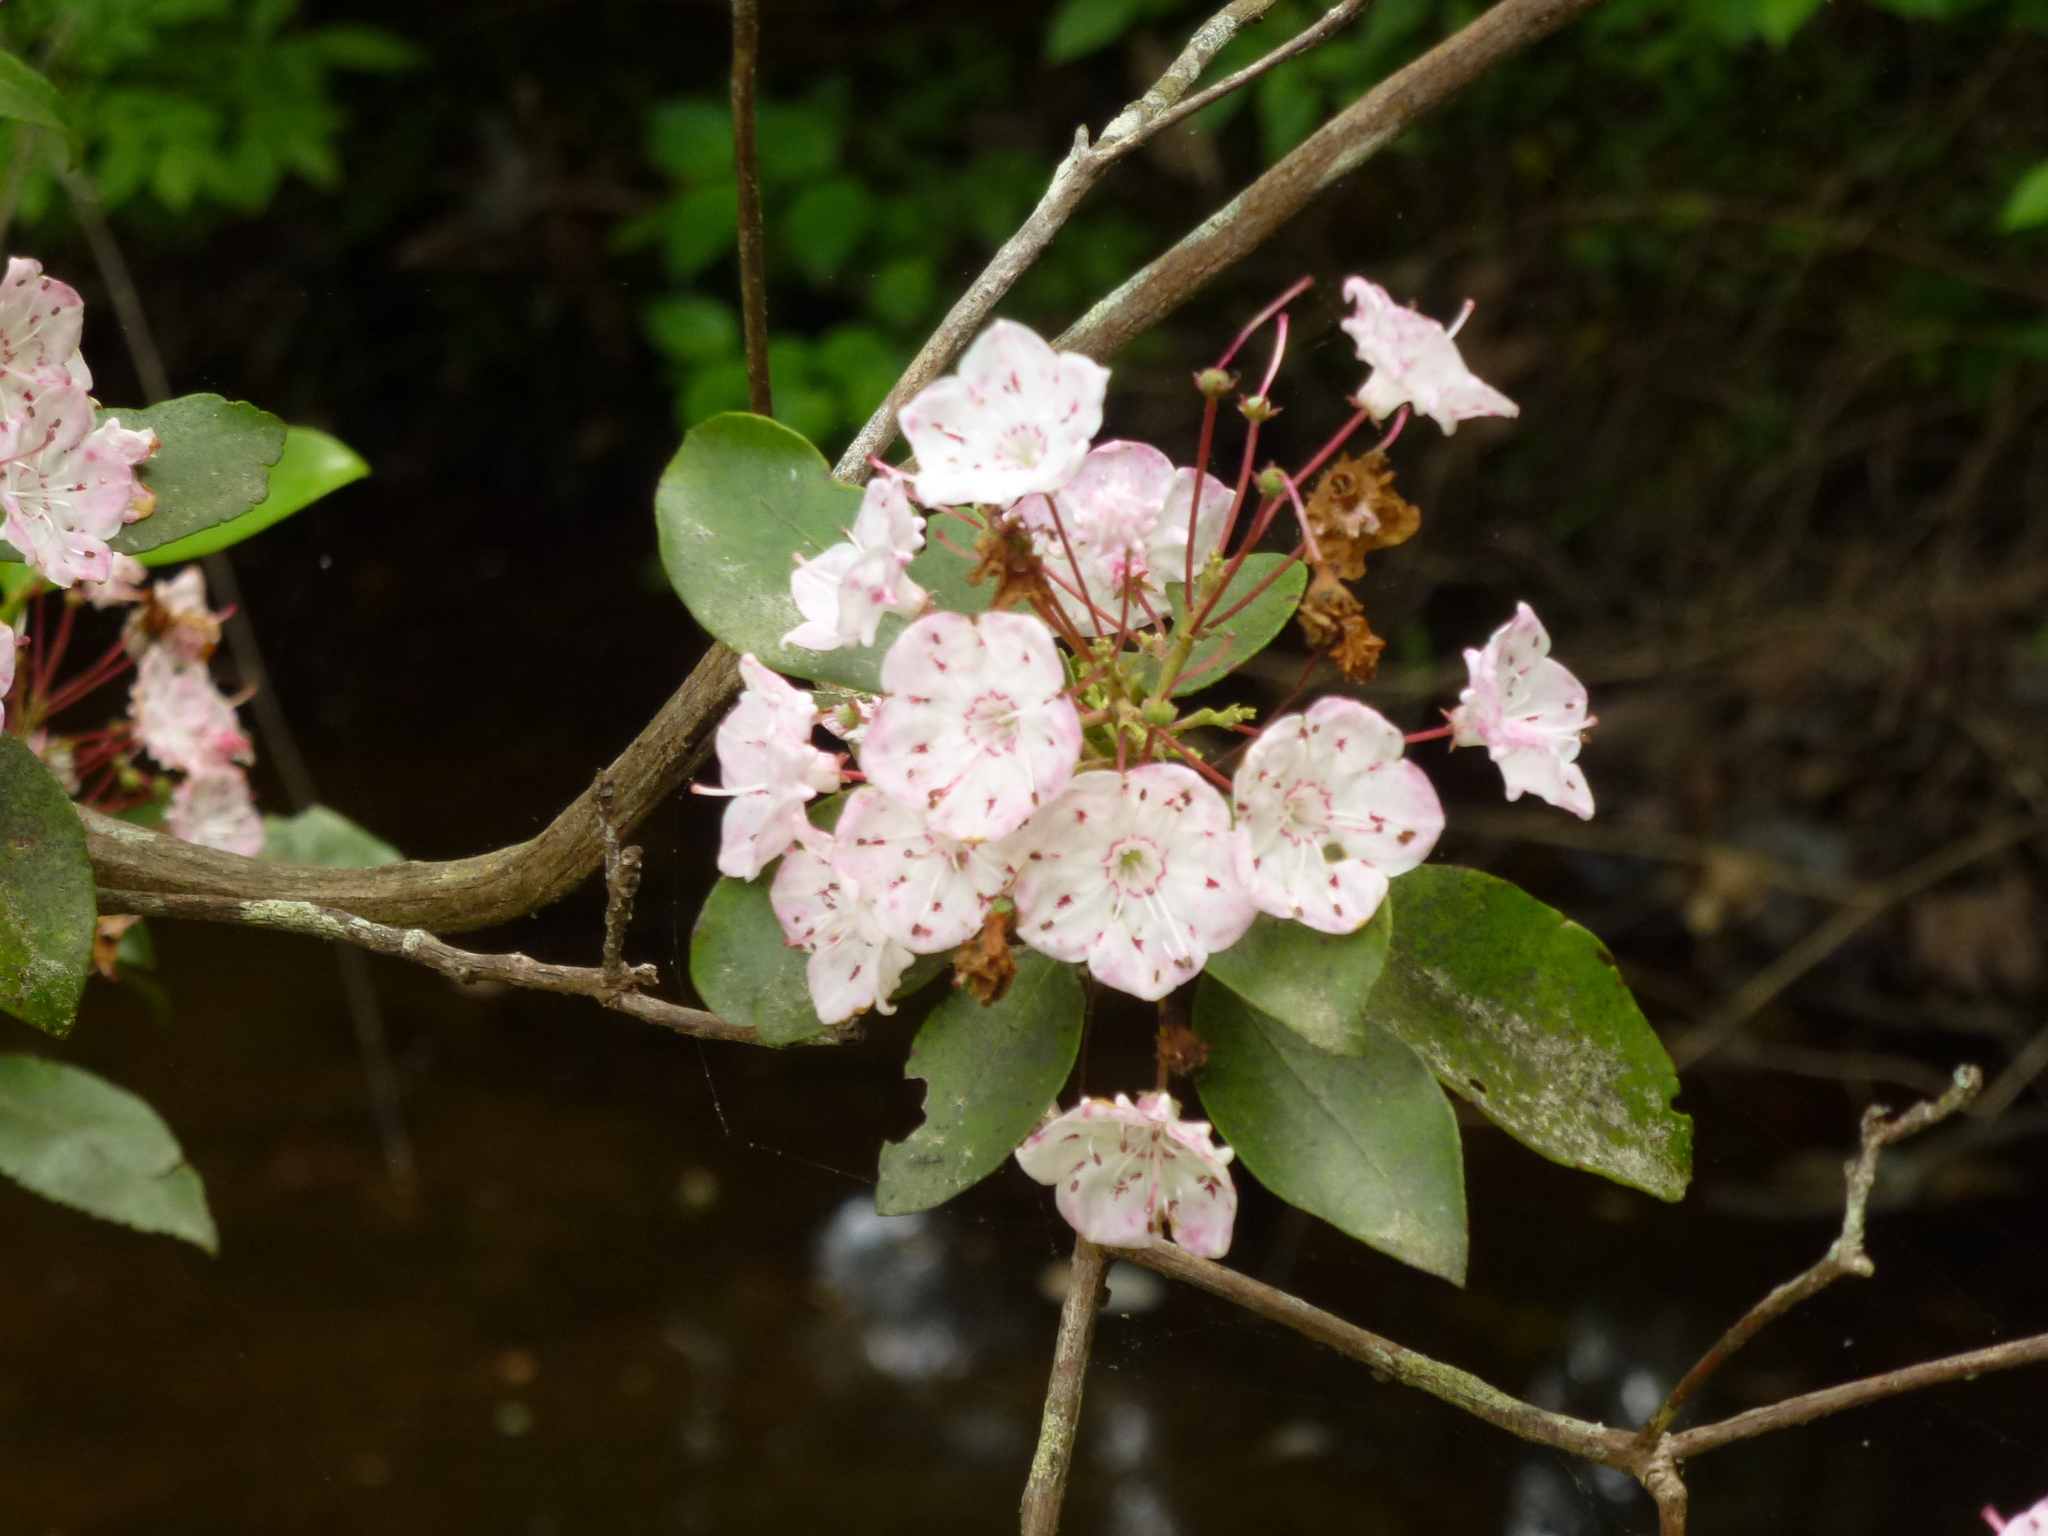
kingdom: Plantae
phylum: Tracheophyta
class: Magnoliopsida
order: Ericales
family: Ericaceae
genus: Kalmia
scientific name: Kalmia latifolia
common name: Mountain-laurel
